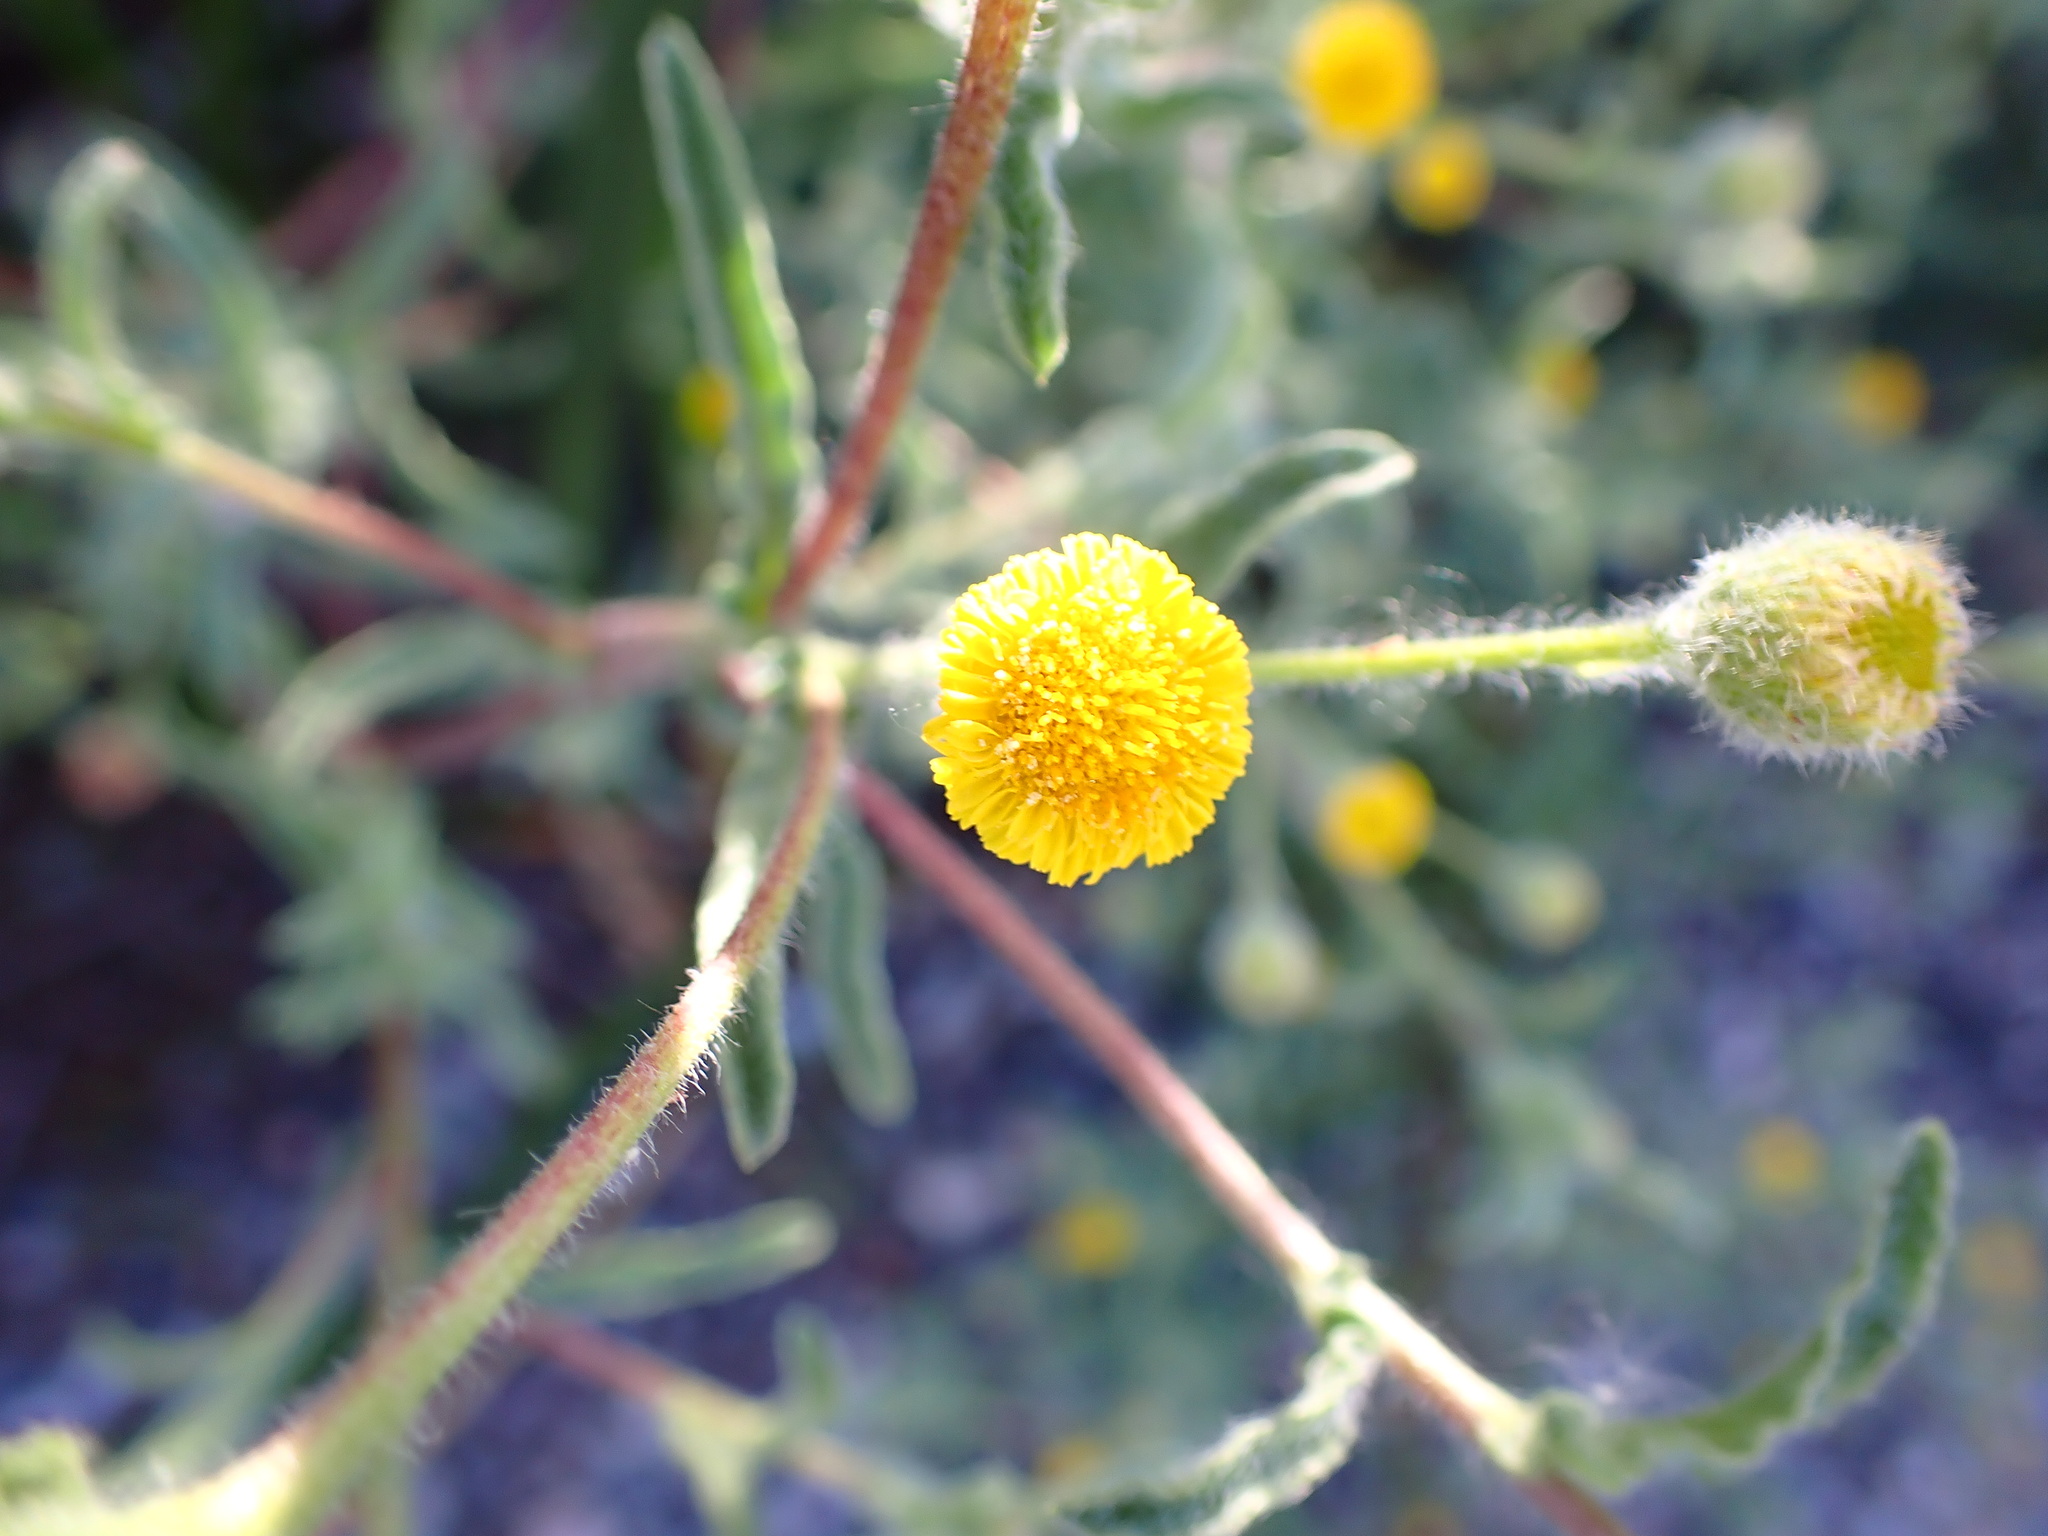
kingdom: Plantae
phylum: Tracheophyta
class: Magnoliopsida
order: Asterales
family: Asteraceae
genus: Pulicaria
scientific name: Pulicaria paludosa
